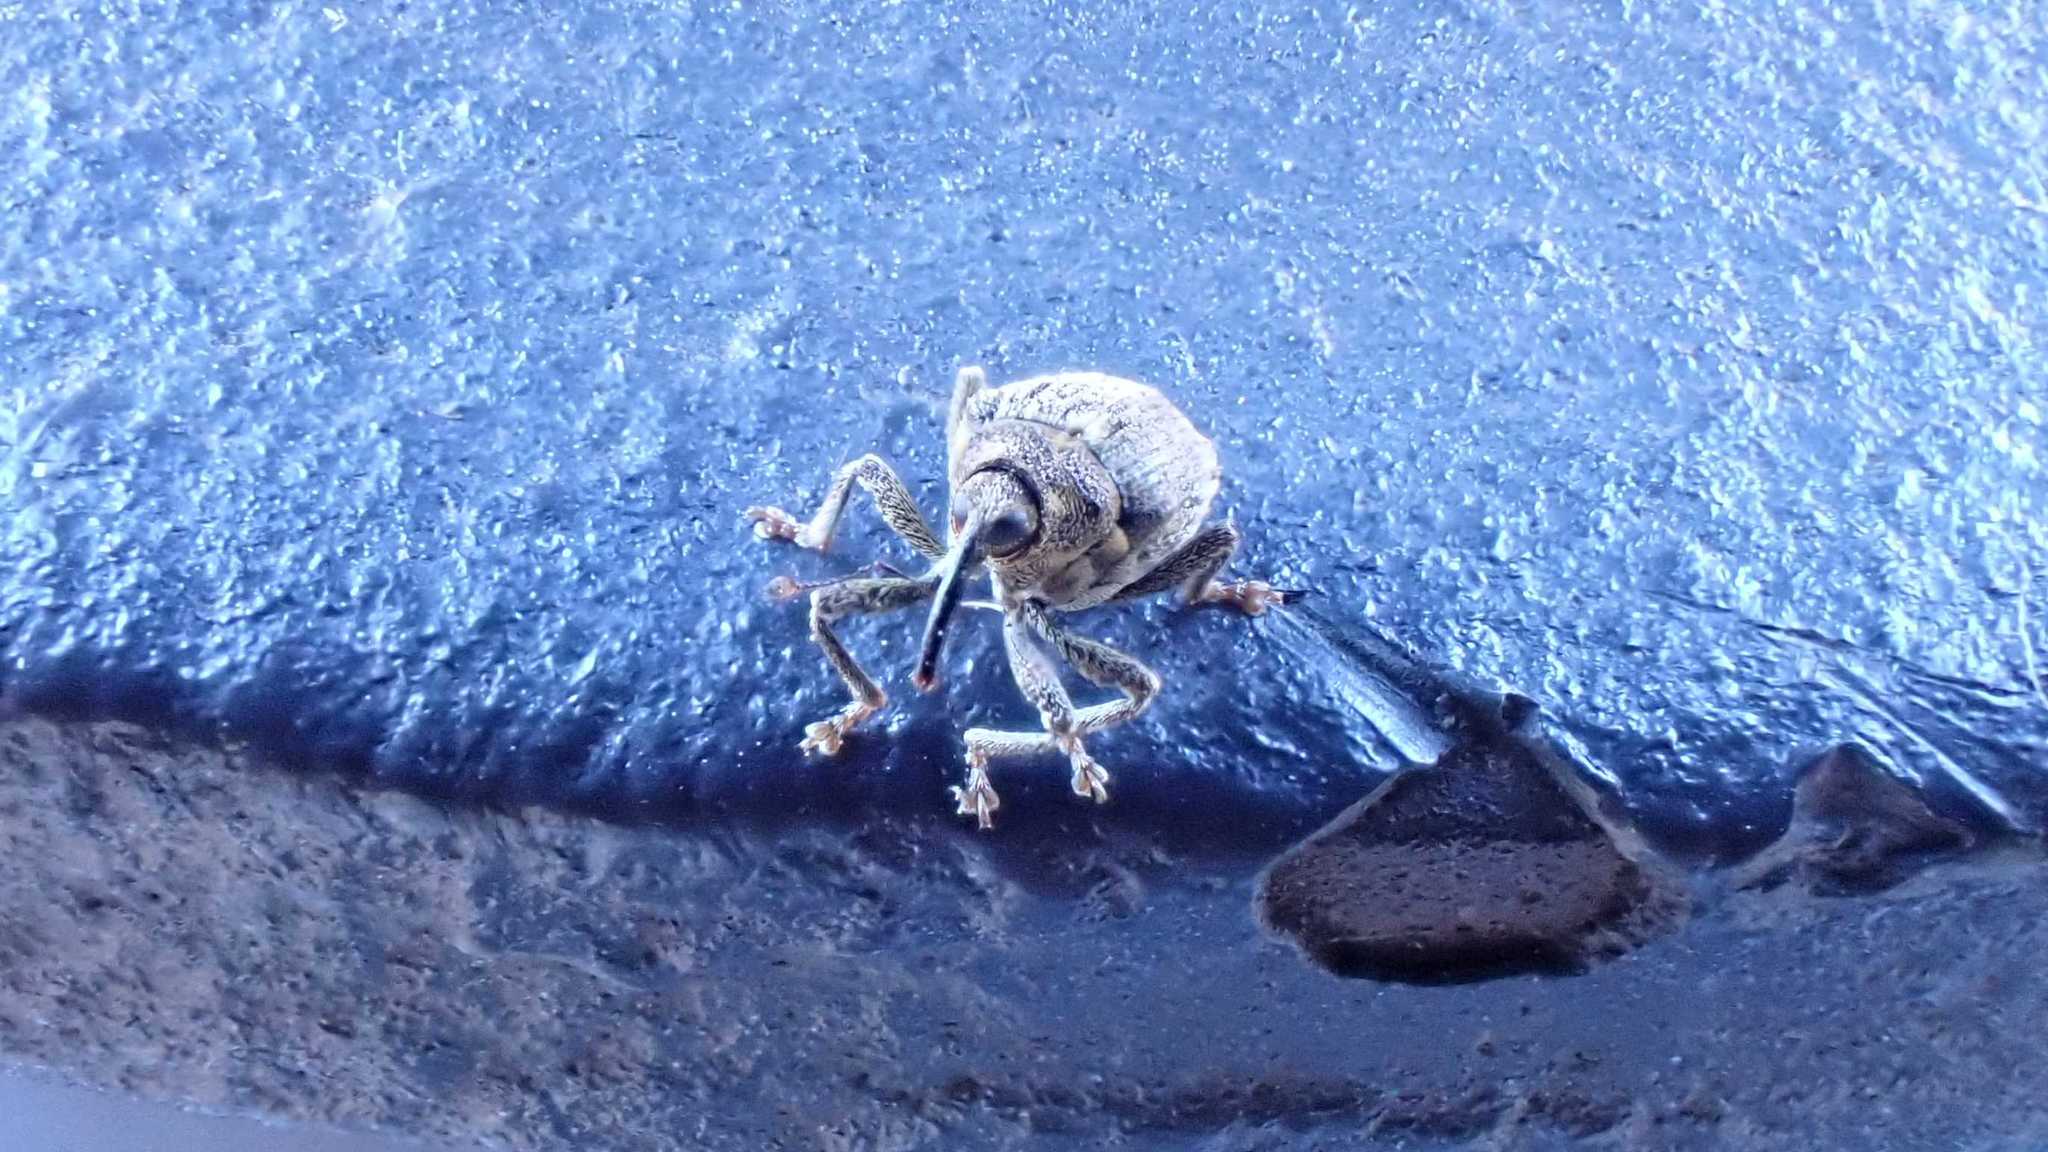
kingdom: Animalia
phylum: Arthropoda
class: Insecta
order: Coleoptera
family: Curculionidae
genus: Ceutorhynchus
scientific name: Ceutorhynchus pallidactylus
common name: Cabbage stem weavil
